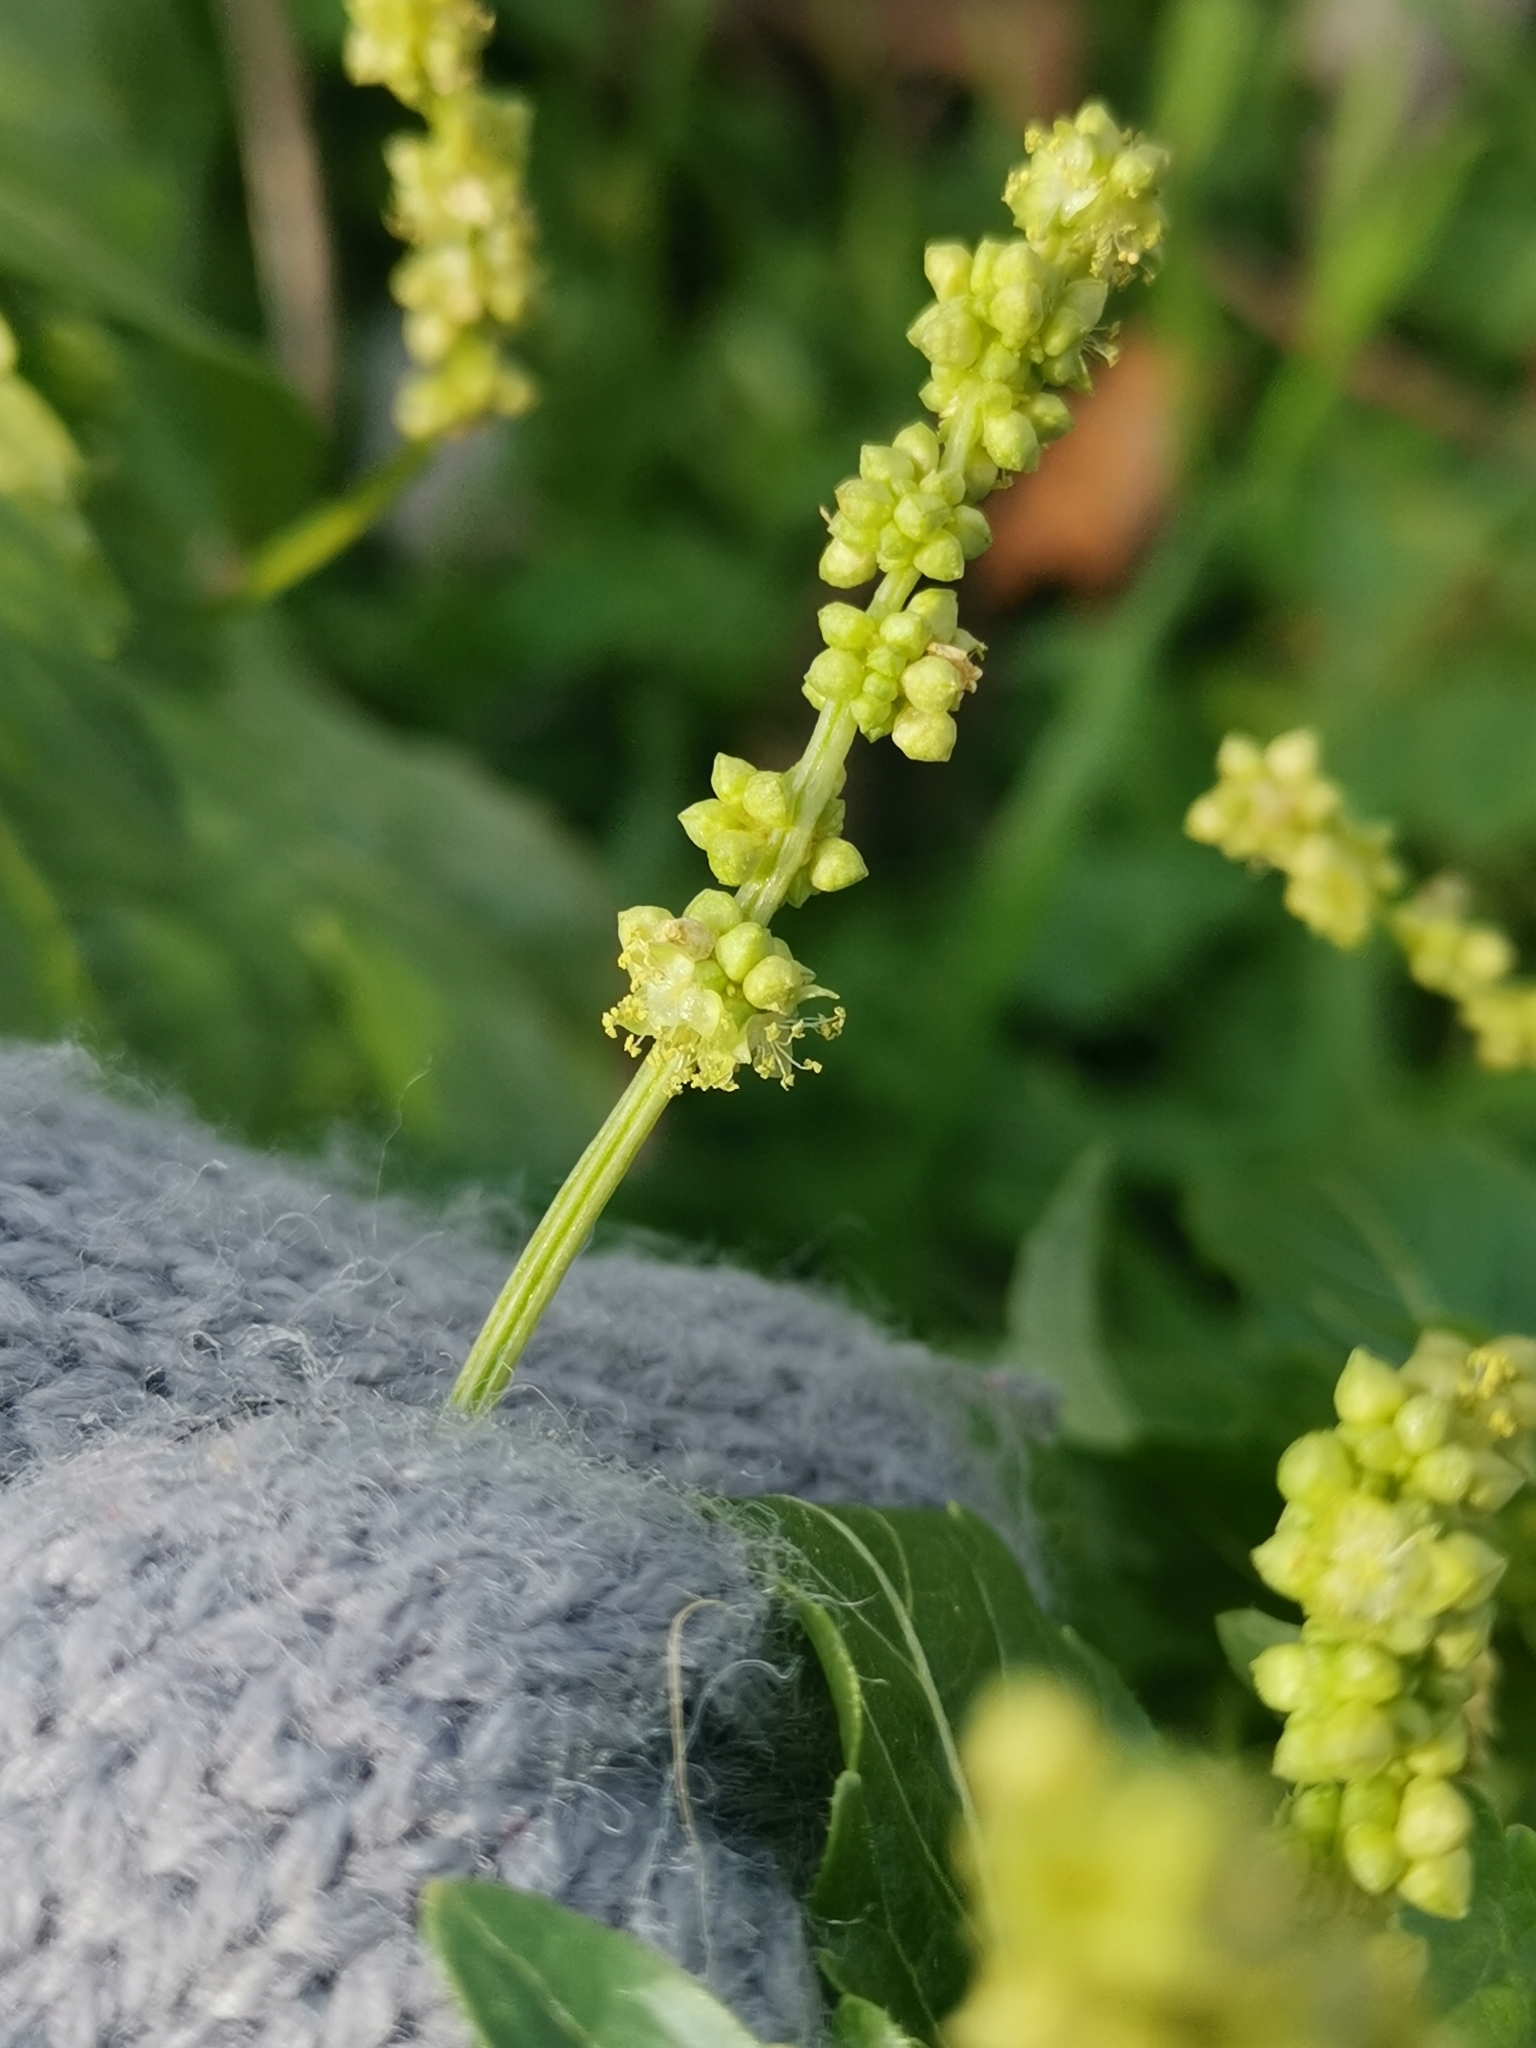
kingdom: Plantae
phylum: Tracheophyta
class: Magnoliopsida
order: Malpighiales
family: Euphorbiaceae
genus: Mercurialis
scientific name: Mercurialis annua
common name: Annual mercury
